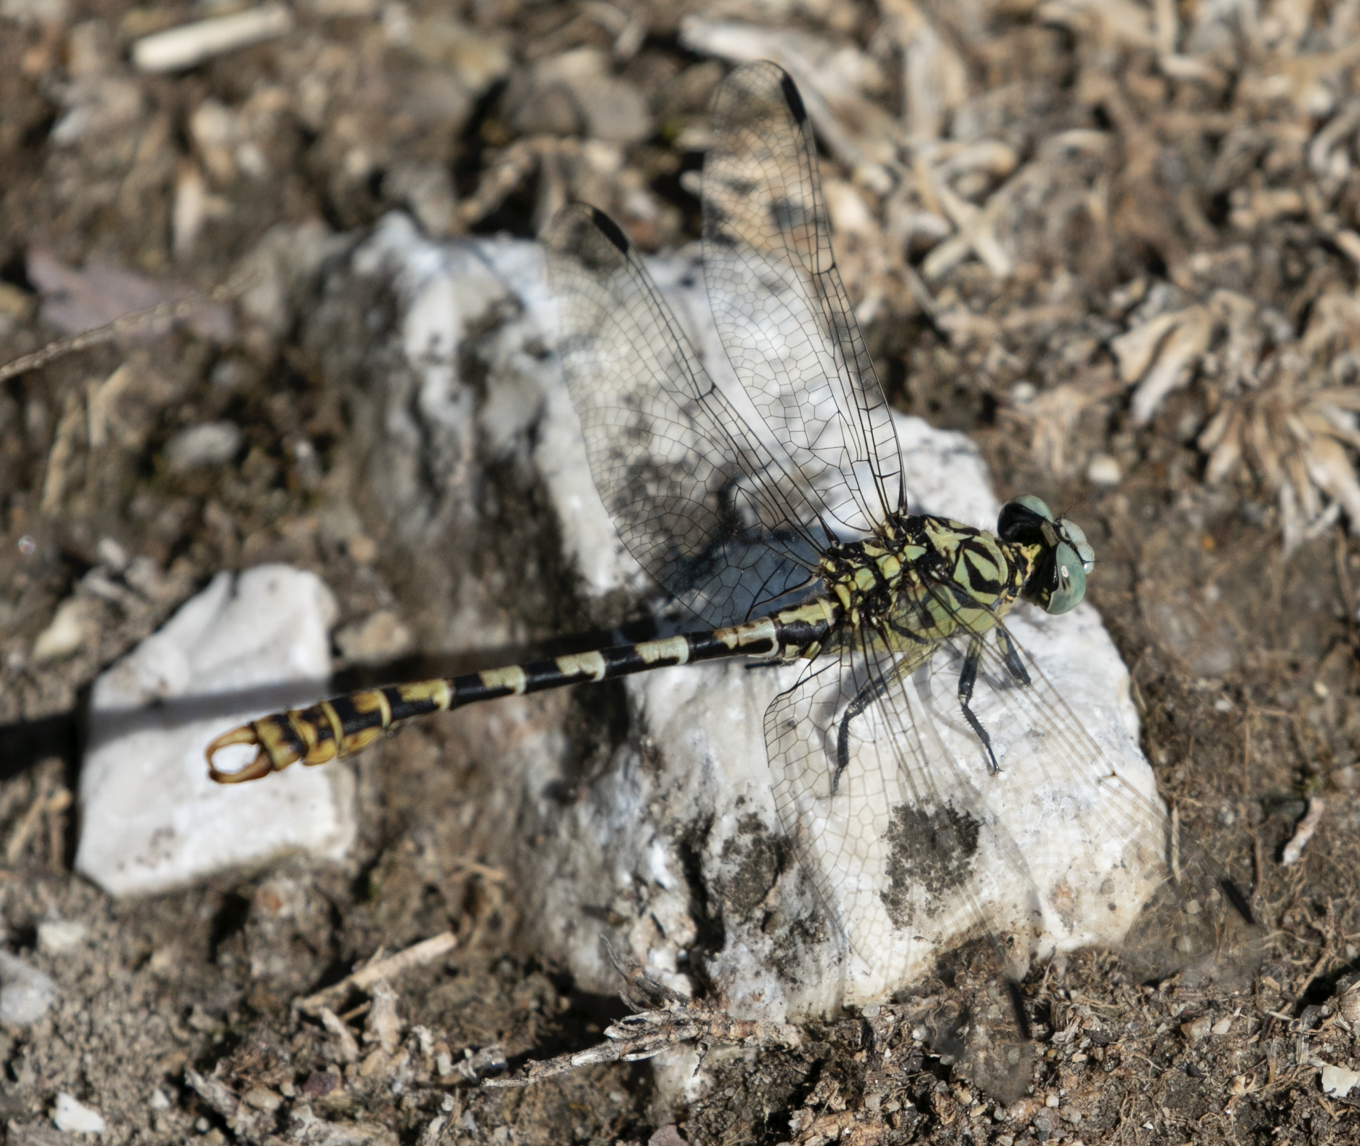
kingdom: Animalia
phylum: Arthropoda
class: Insecta
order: Odonata
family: Gomphidae
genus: Onychogomphus
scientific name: Onychogomphus forcipatus
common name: Small pincertail
